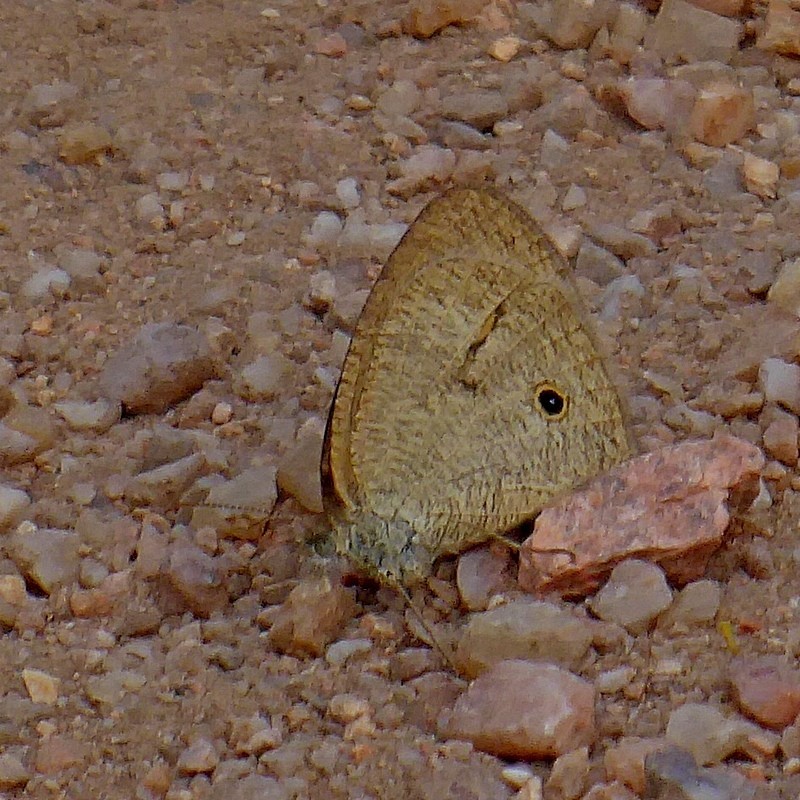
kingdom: Animalia
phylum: Arthropoda
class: Insecta
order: Lepidoptera
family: Nymphalidae
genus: Ypthima
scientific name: Ypthima arctous
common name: Dusky knight
